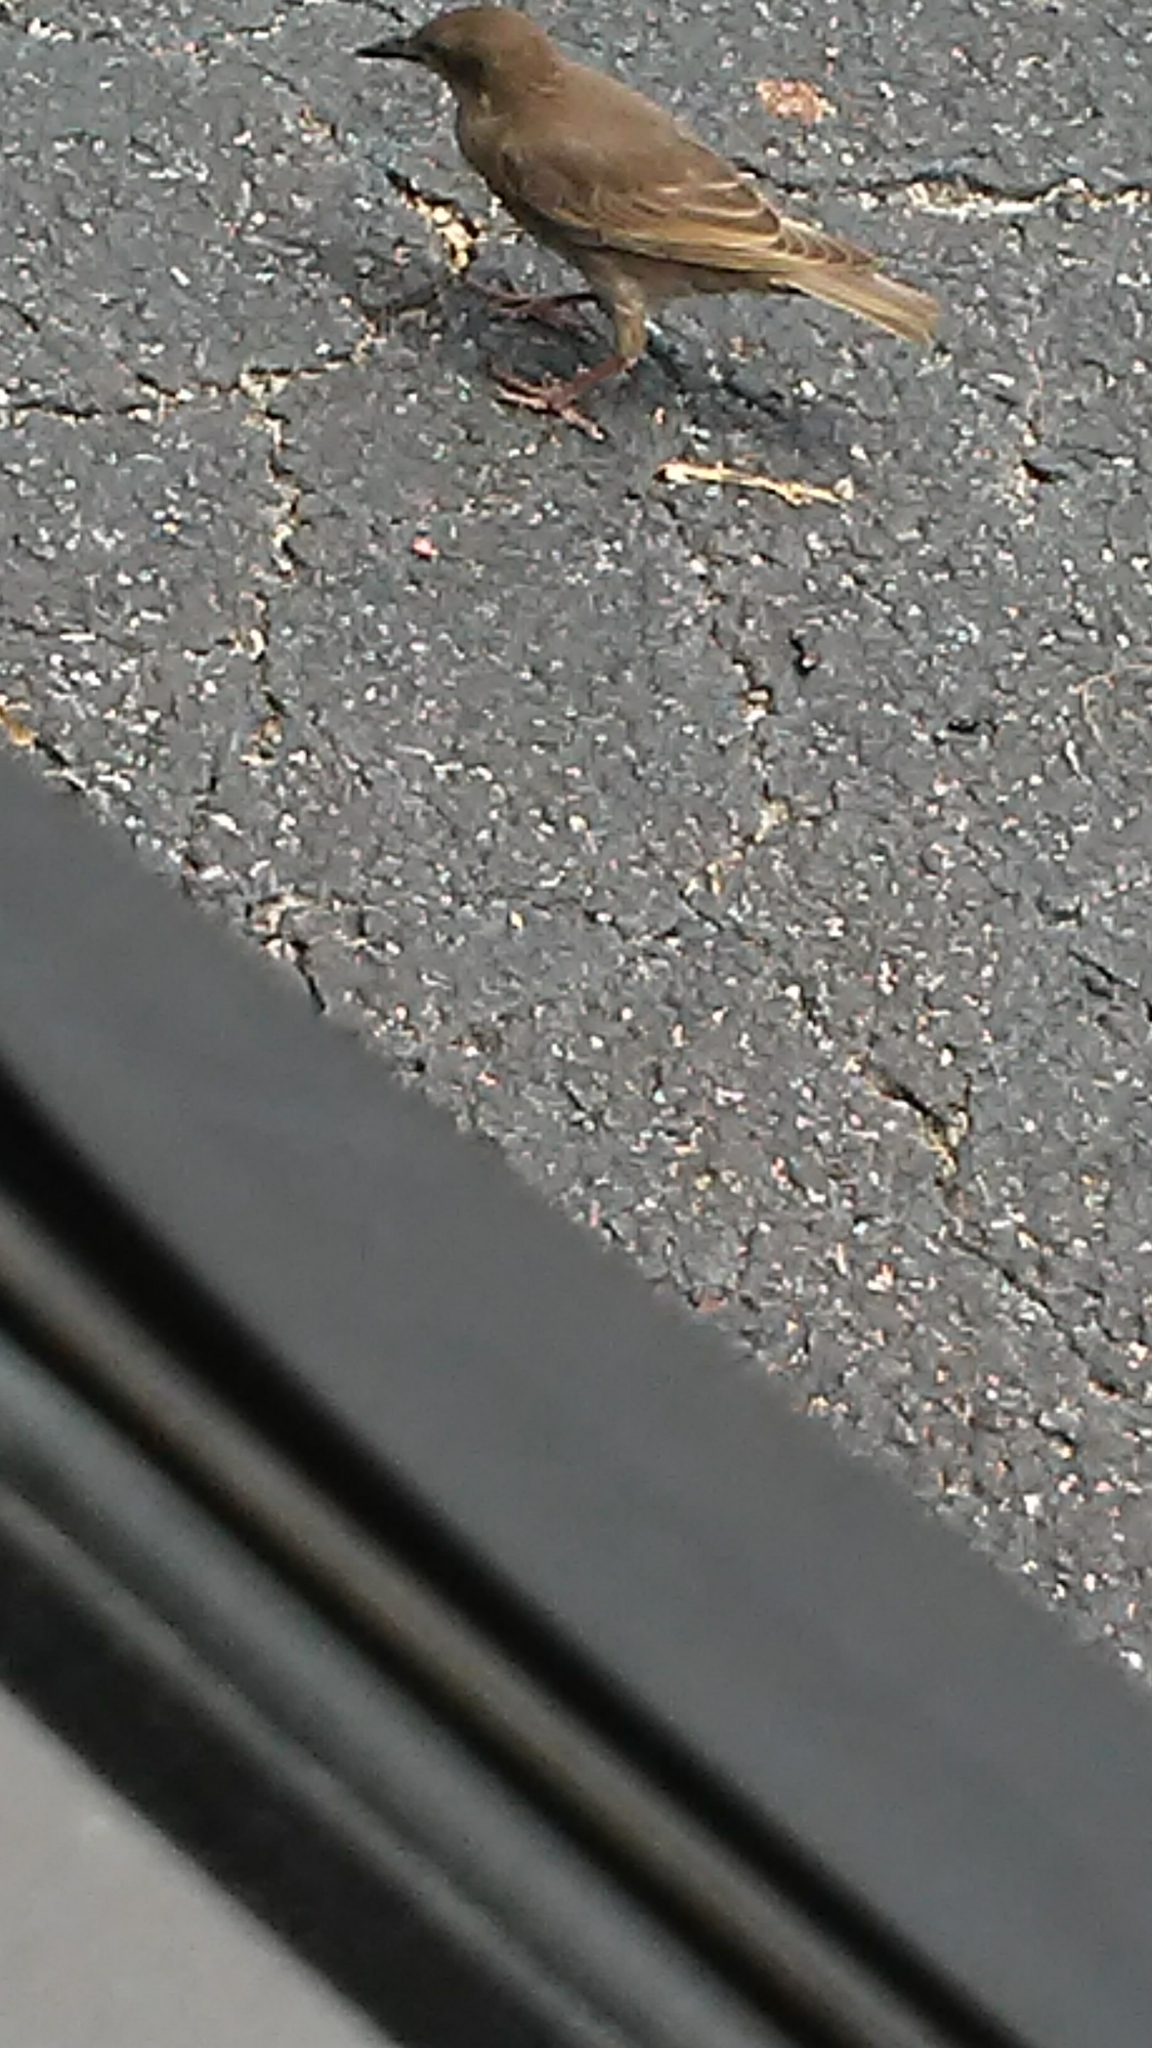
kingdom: Animalia
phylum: Chordata
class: Aves
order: Passeriformes
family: Sturnidae
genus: Sturnus
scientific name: Sturnus vulgaris
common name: Common starling
